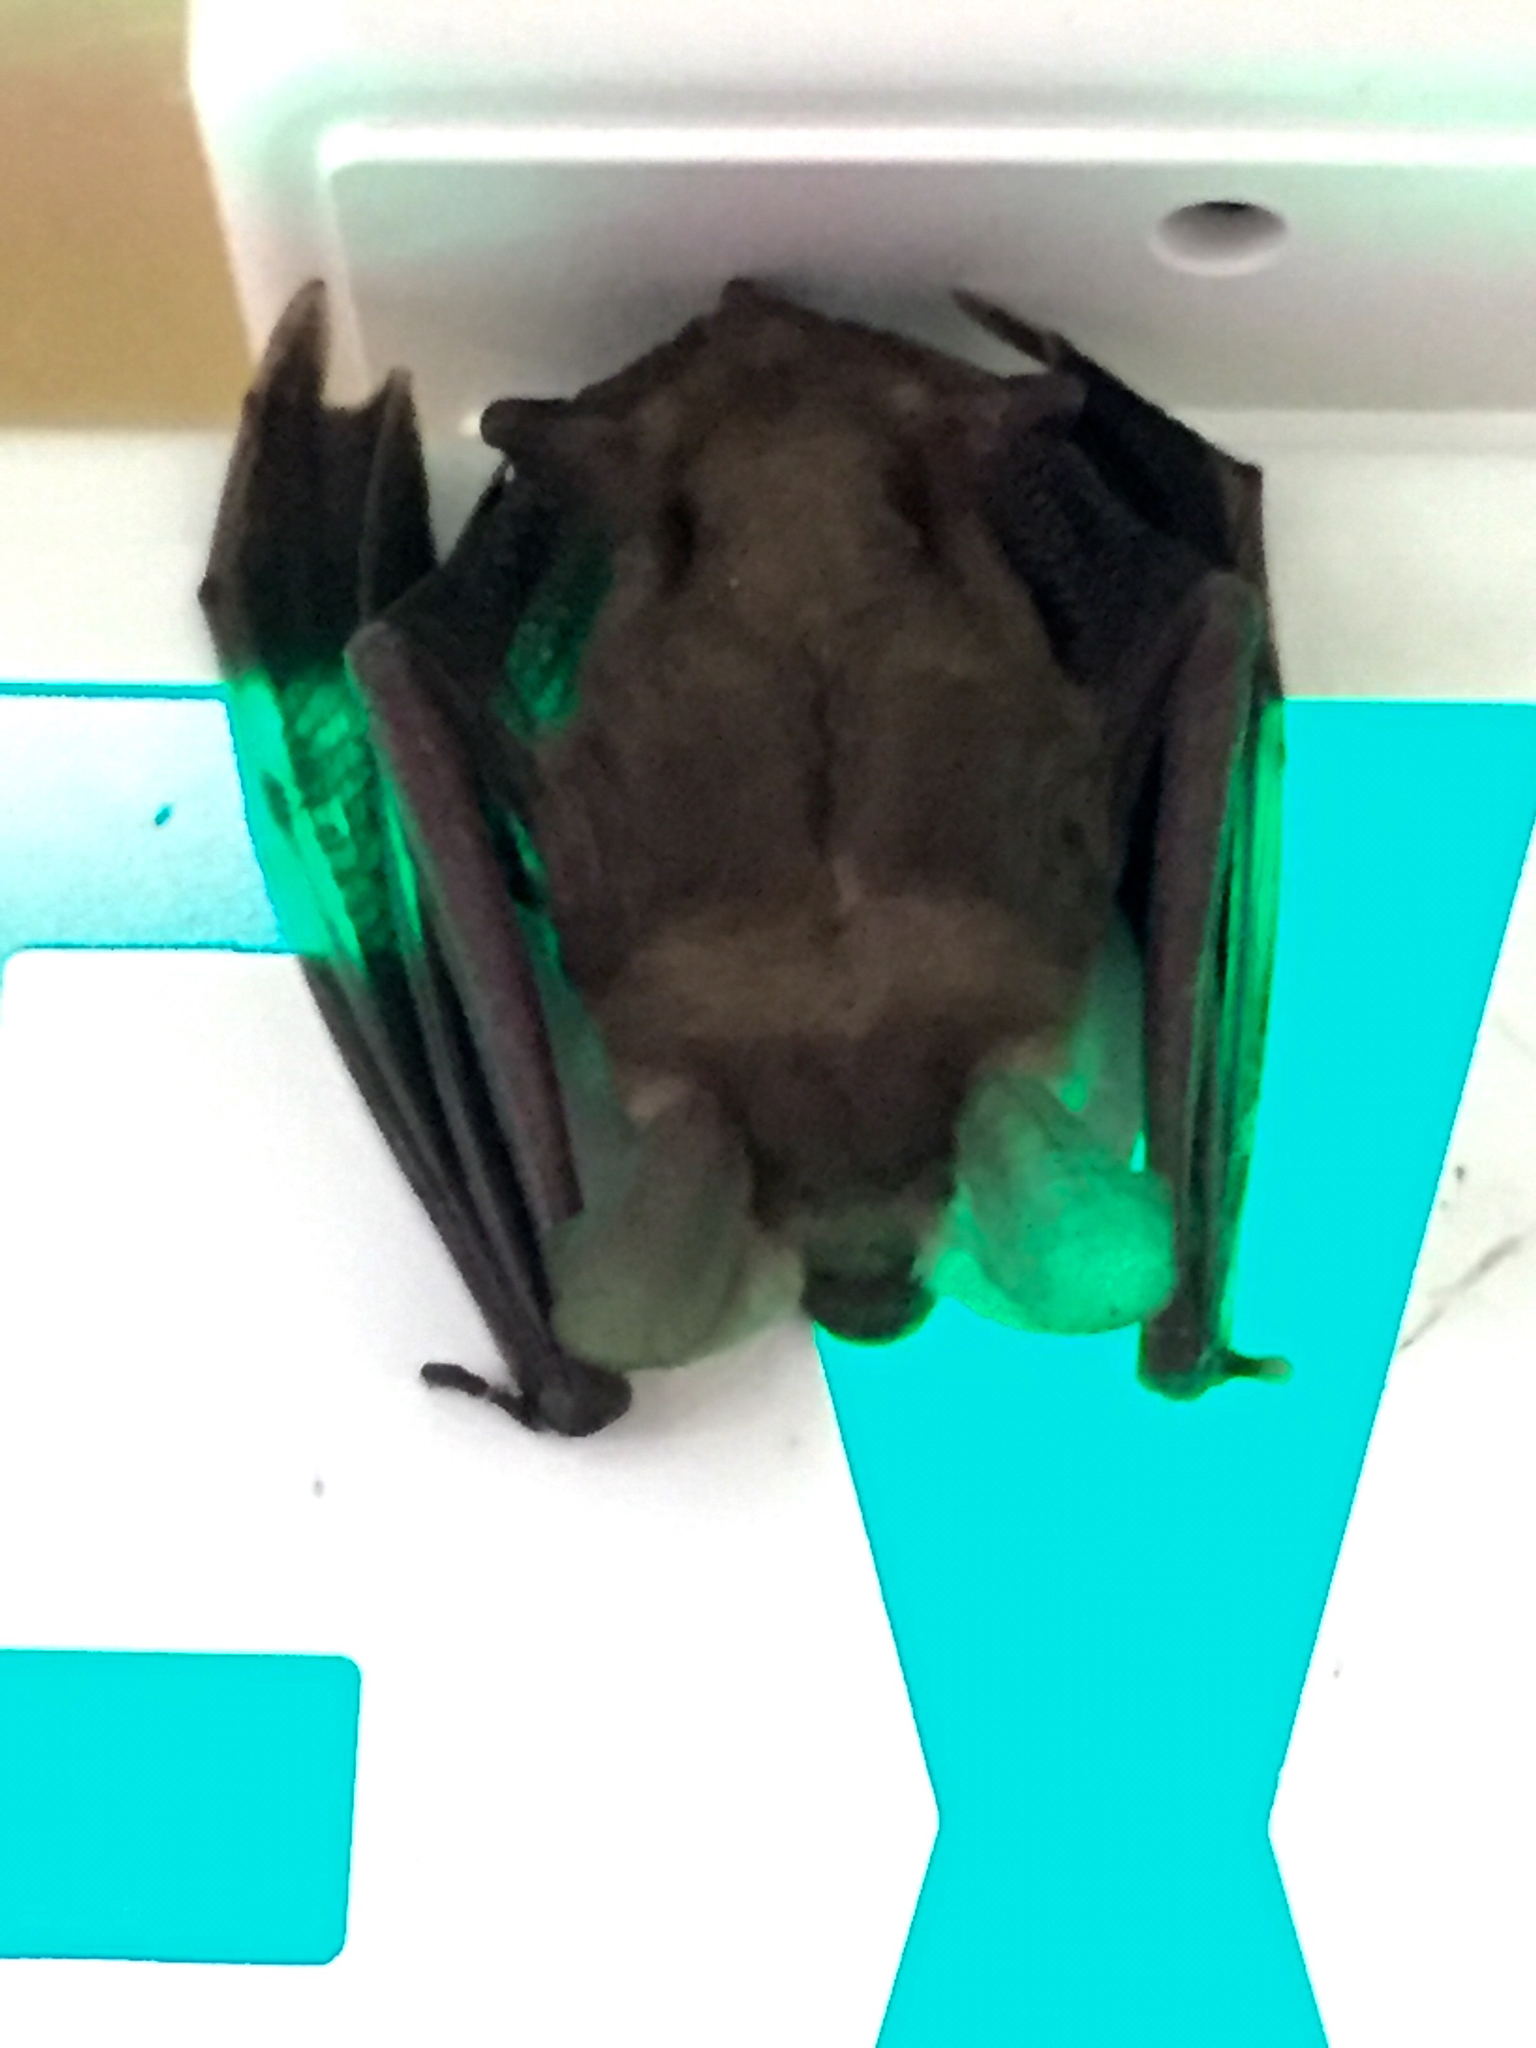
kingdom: Animalia
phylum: Chordata
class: Mammalia
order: Chiroptera
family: Vespertilionidae
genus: Antrozous
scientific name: Antrozous pallidus
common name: Pallid bat
